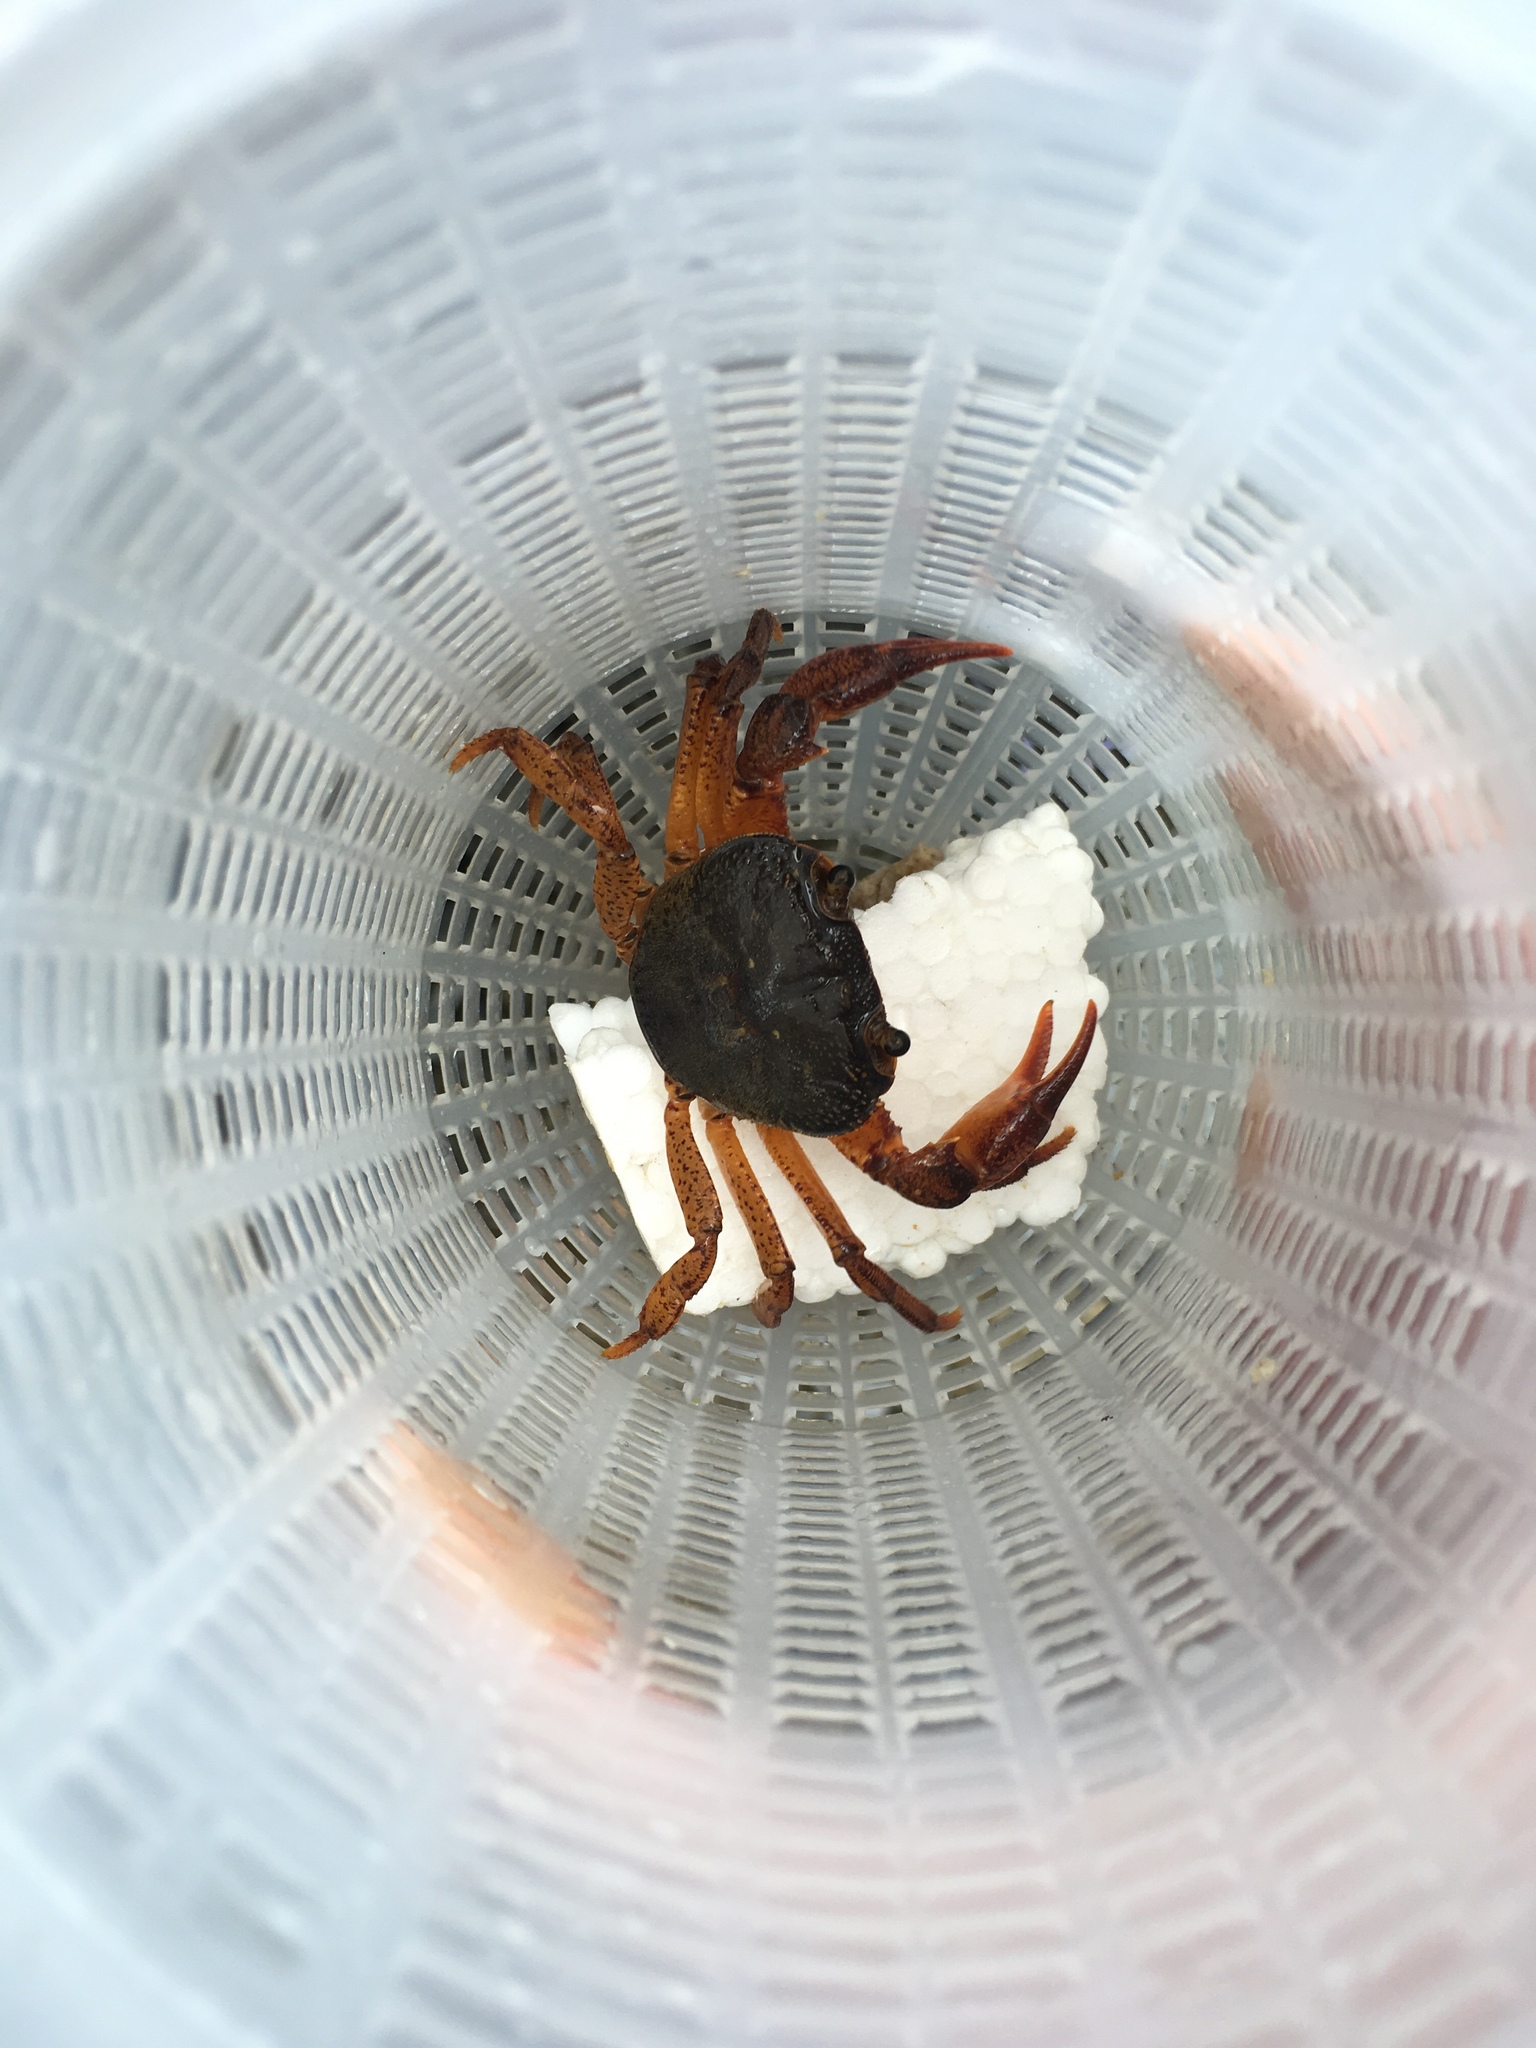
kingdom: Animalia
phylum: Arthropoda
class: Malacostraca
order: Decapoda
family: Potamidae
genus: Candidiopotamon
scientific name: Candidiopotamon rathbuni
